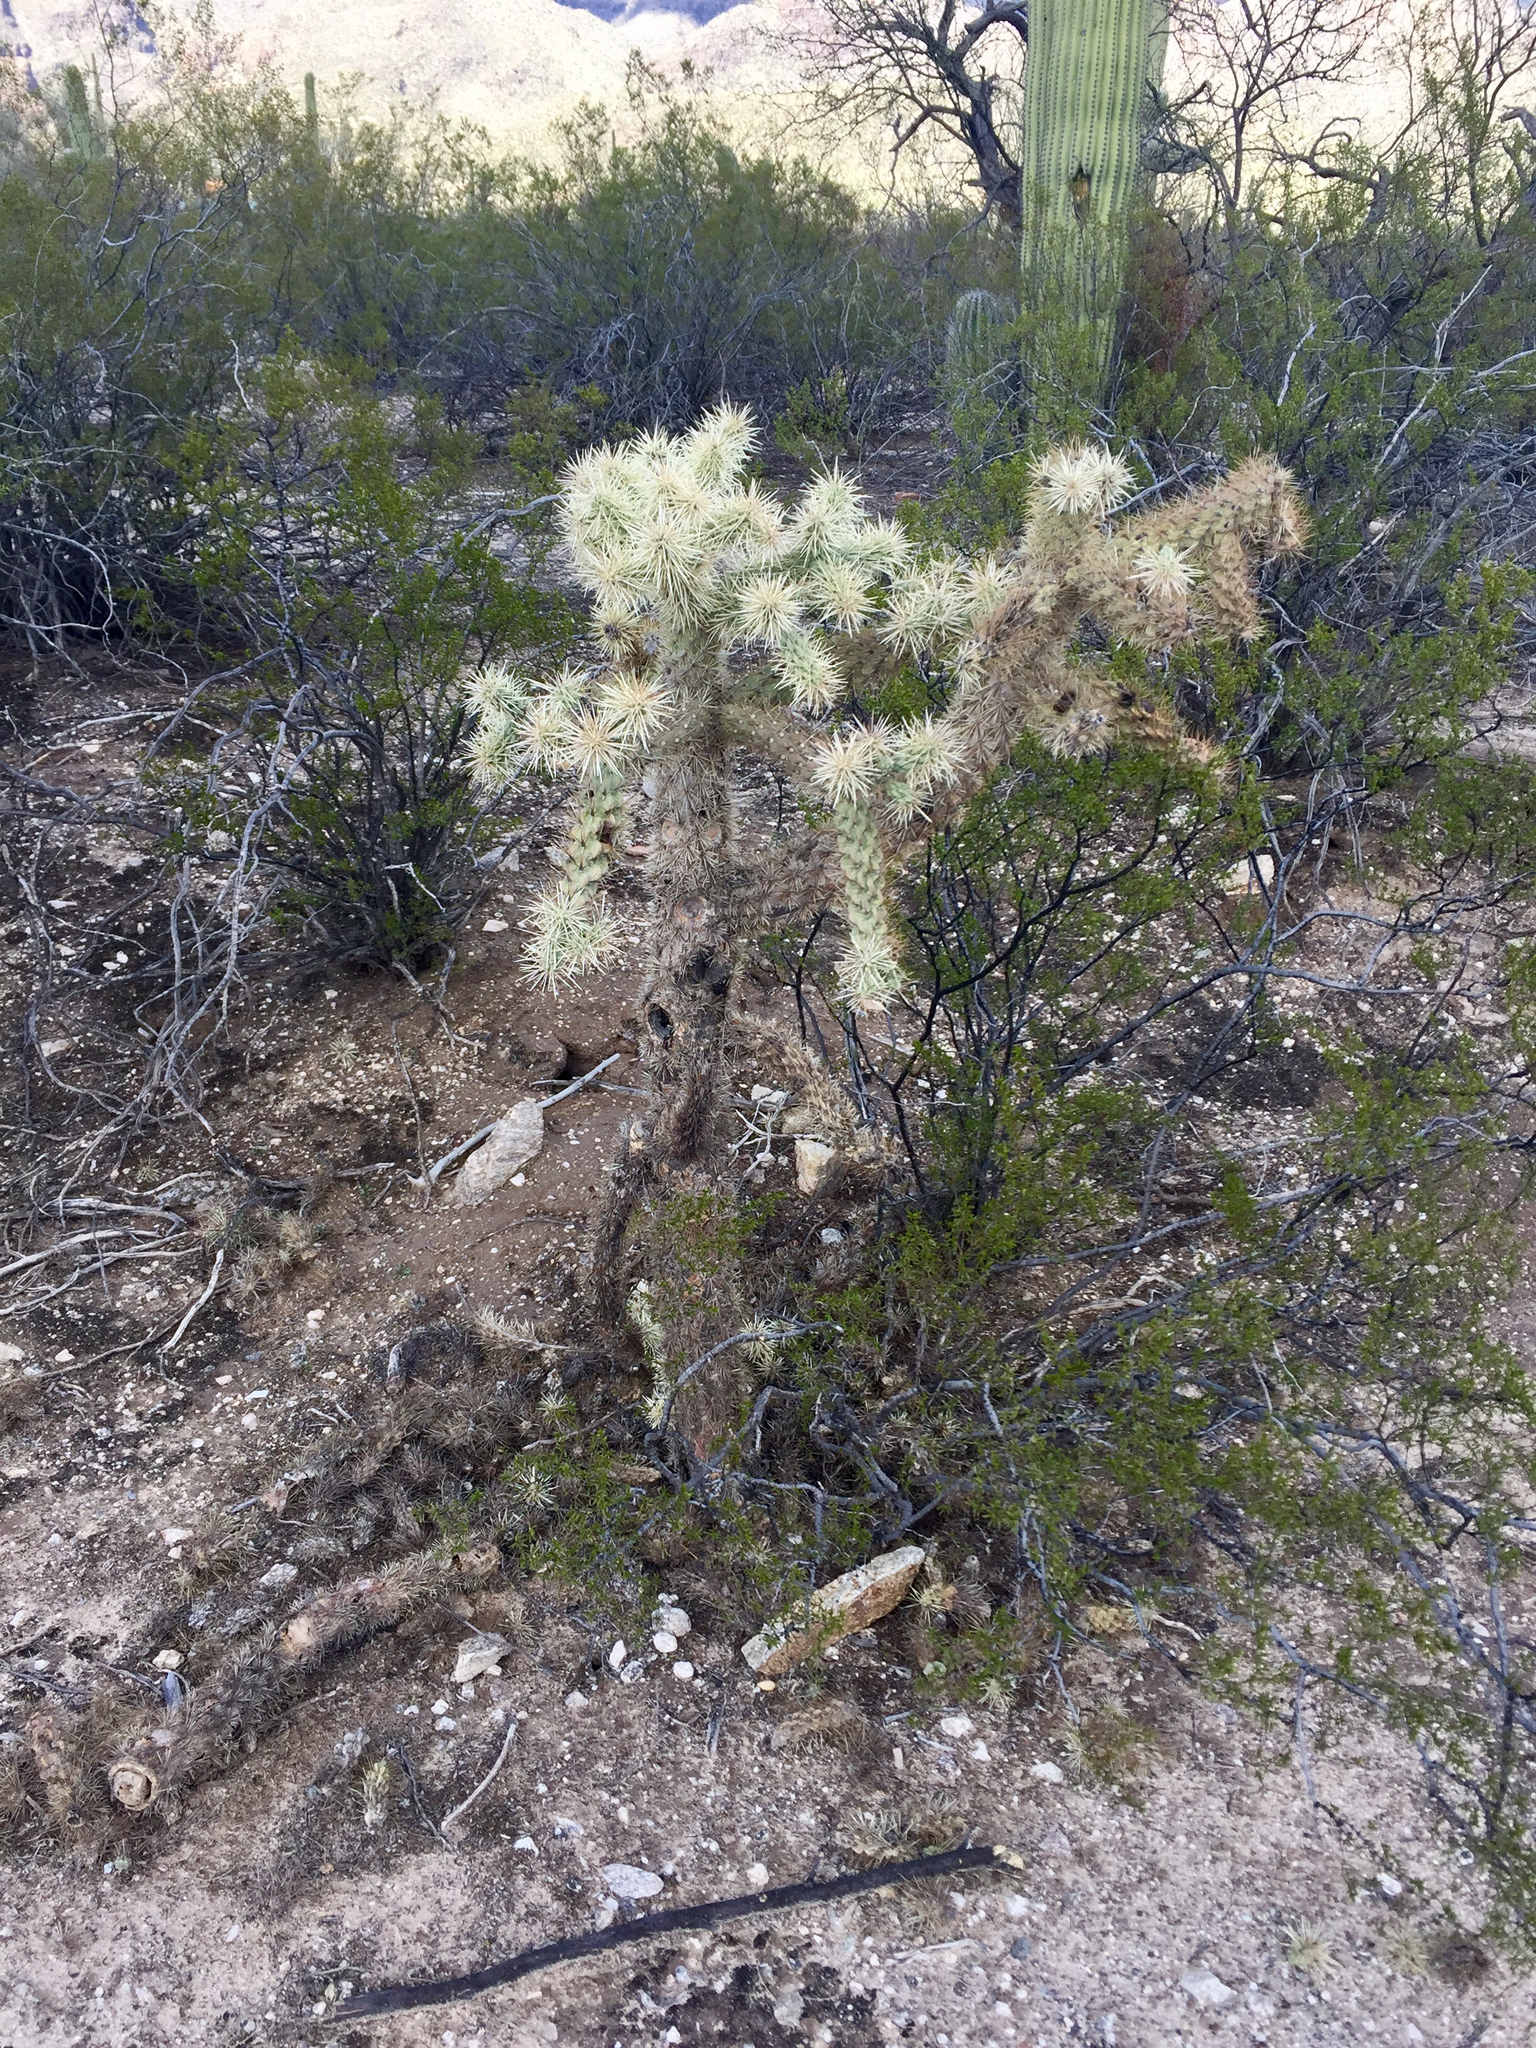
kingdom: Plantae
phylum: Tracheophyta
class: Magnoliopsida
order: Caryophyllales
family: Cactaceae
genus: Cylindropuntia
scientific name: Cylindropuntia fulgida
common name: Jumping cholla
